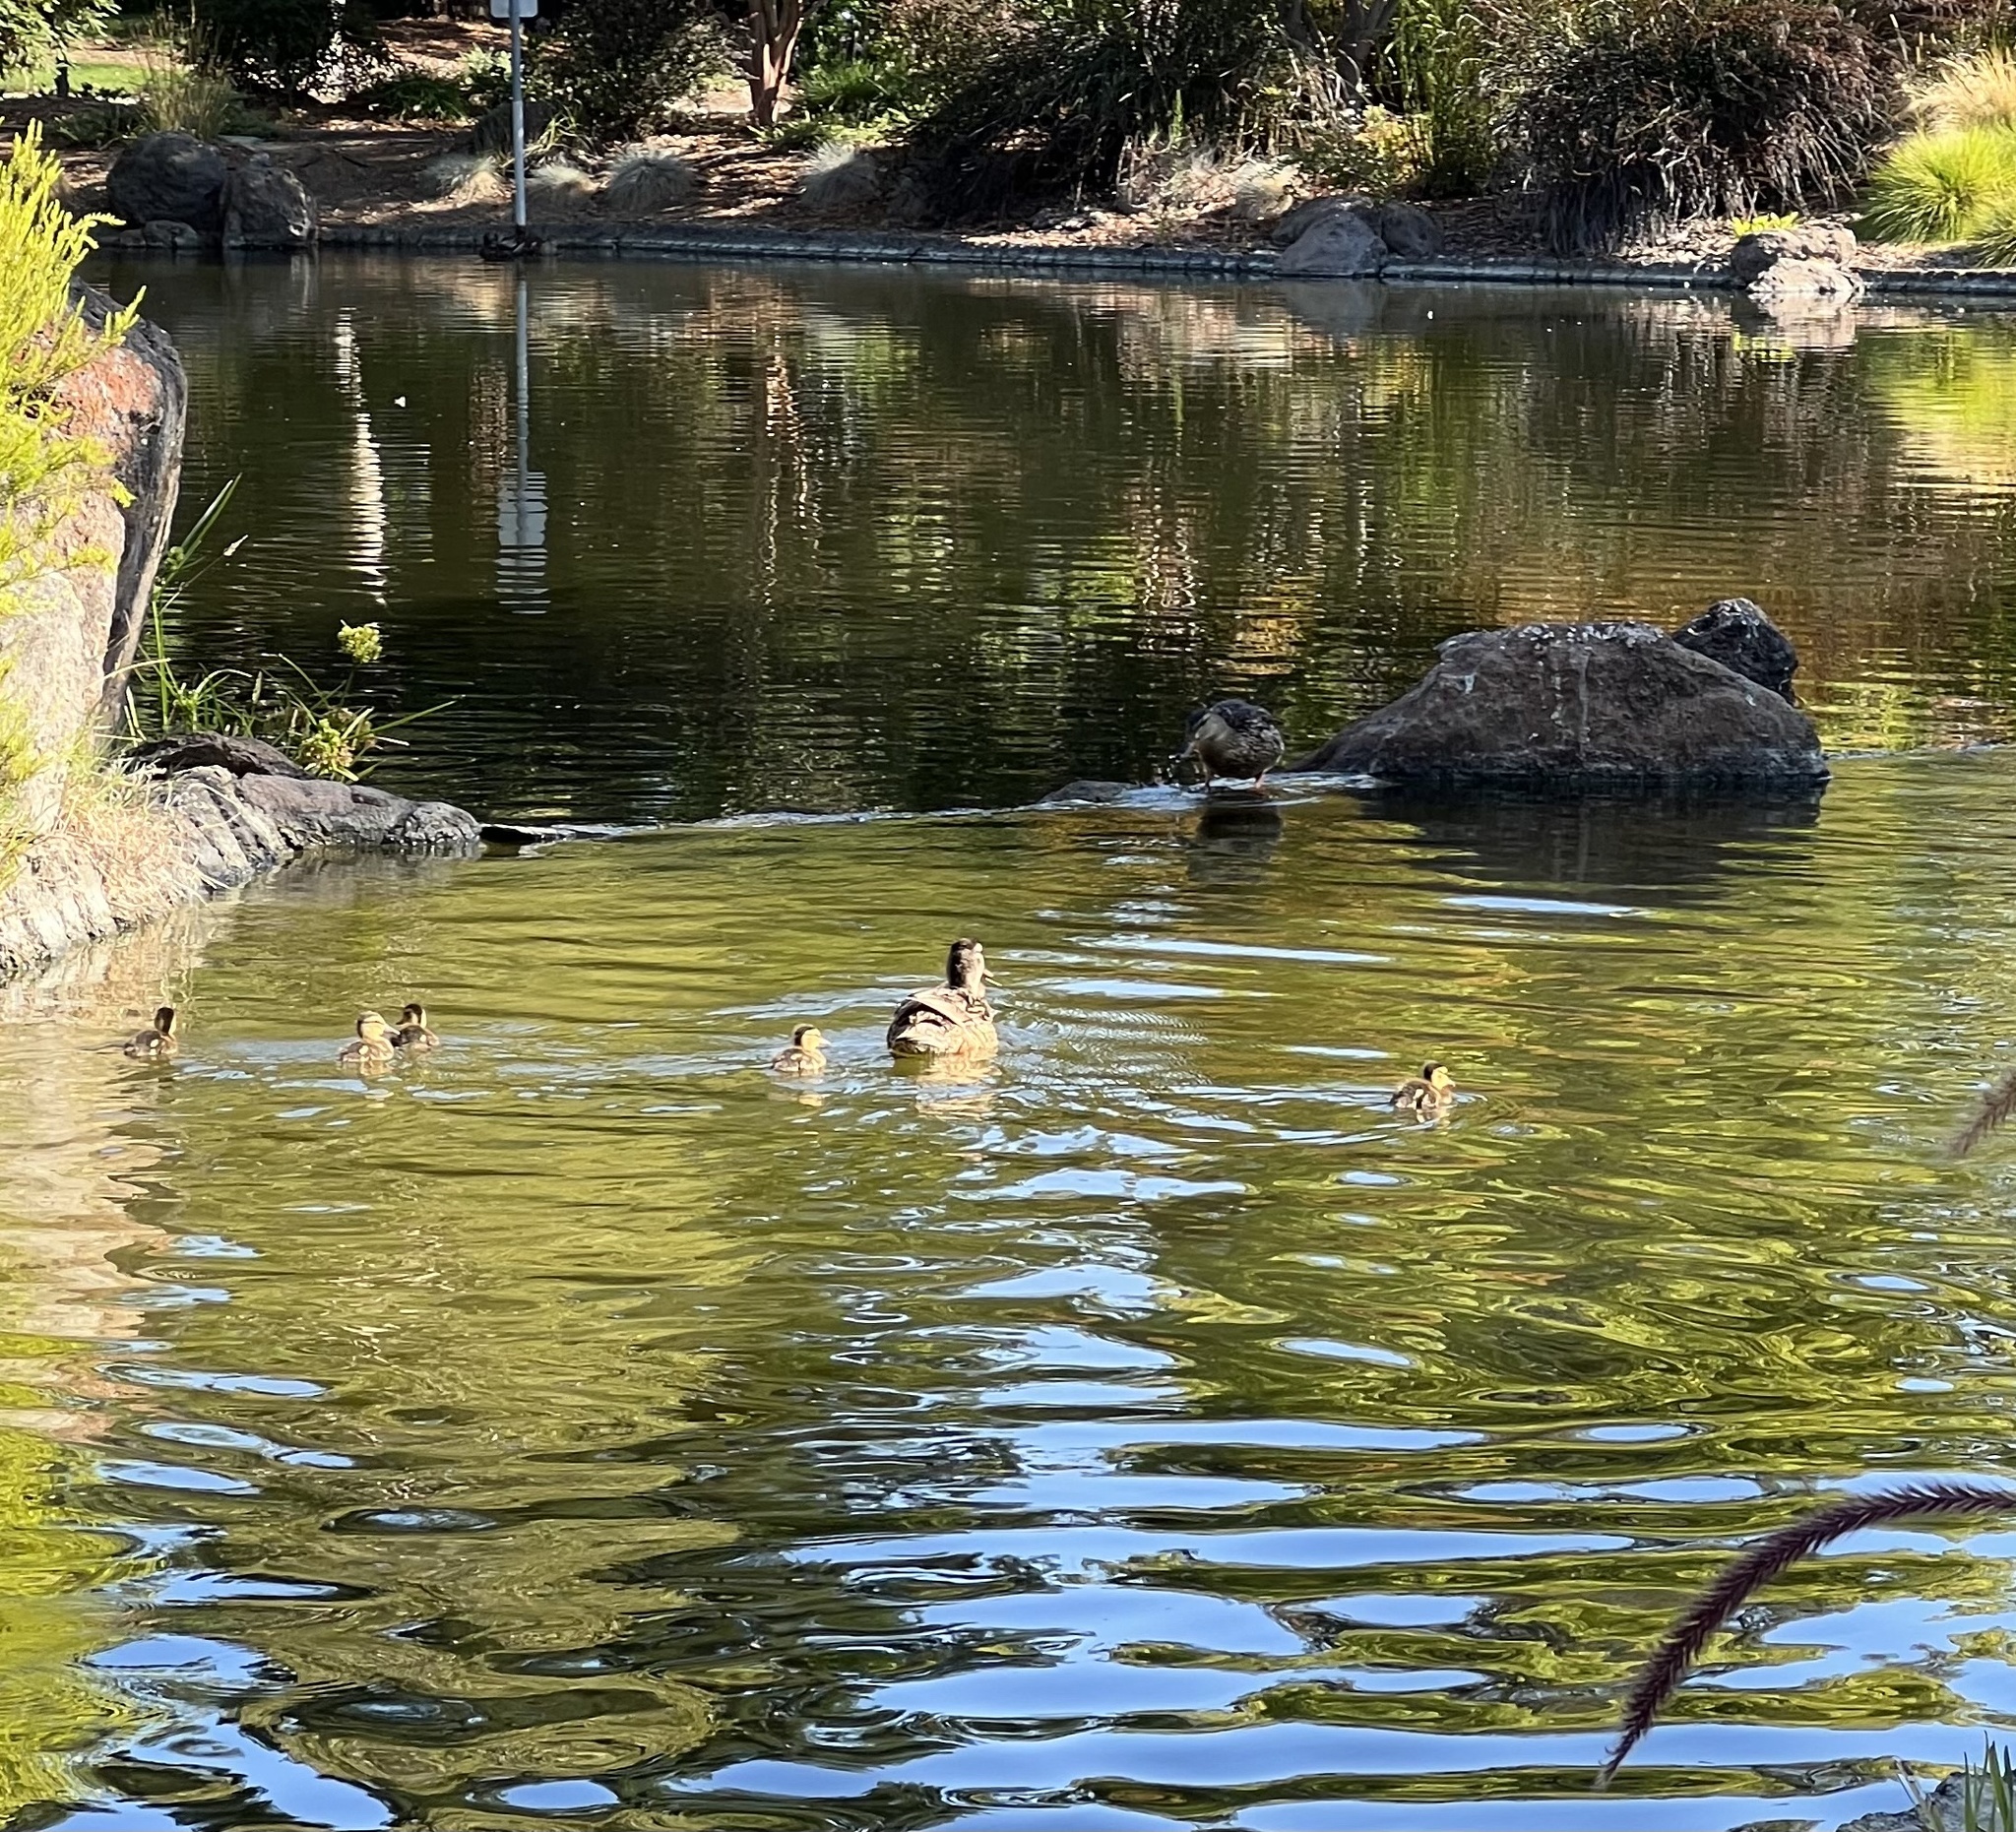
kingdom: Animalia
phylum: Chordata
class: Aves
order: Anseriformes
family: Anatidae
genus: Anas
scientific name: Anas platyrhynchos
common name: Mallard
